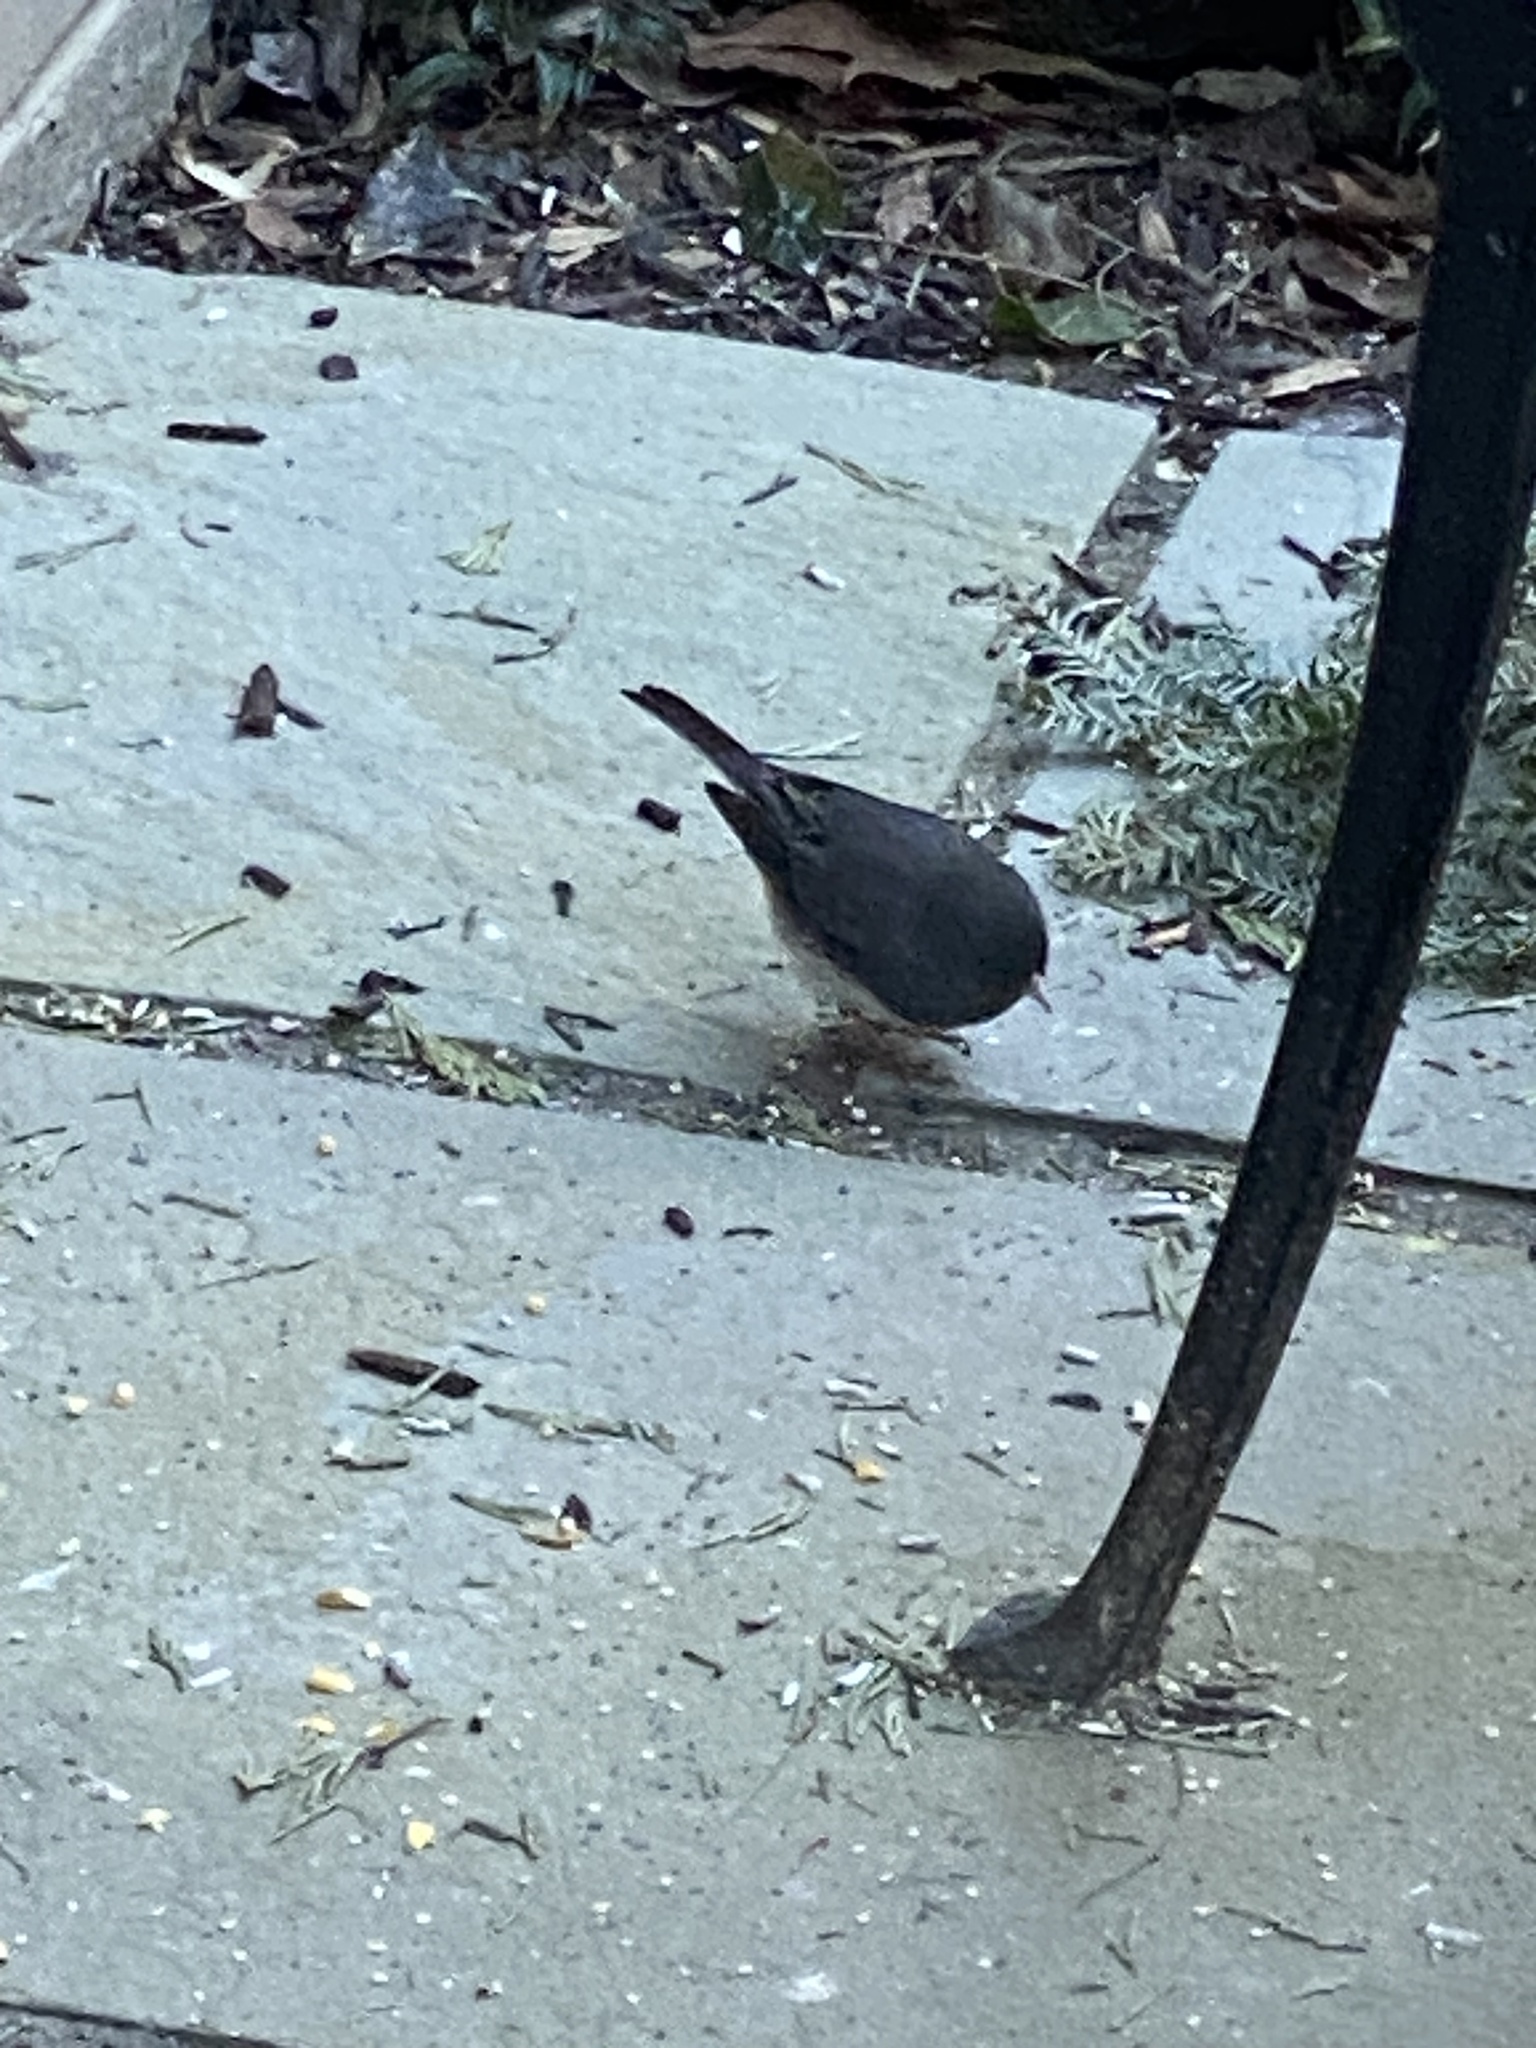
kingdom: Animalia
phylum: Chordata
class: Aves
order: Passeriformes
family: Passerellidae
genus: Junco
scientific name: Junco hyemalis
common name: Dark-eyed junco
